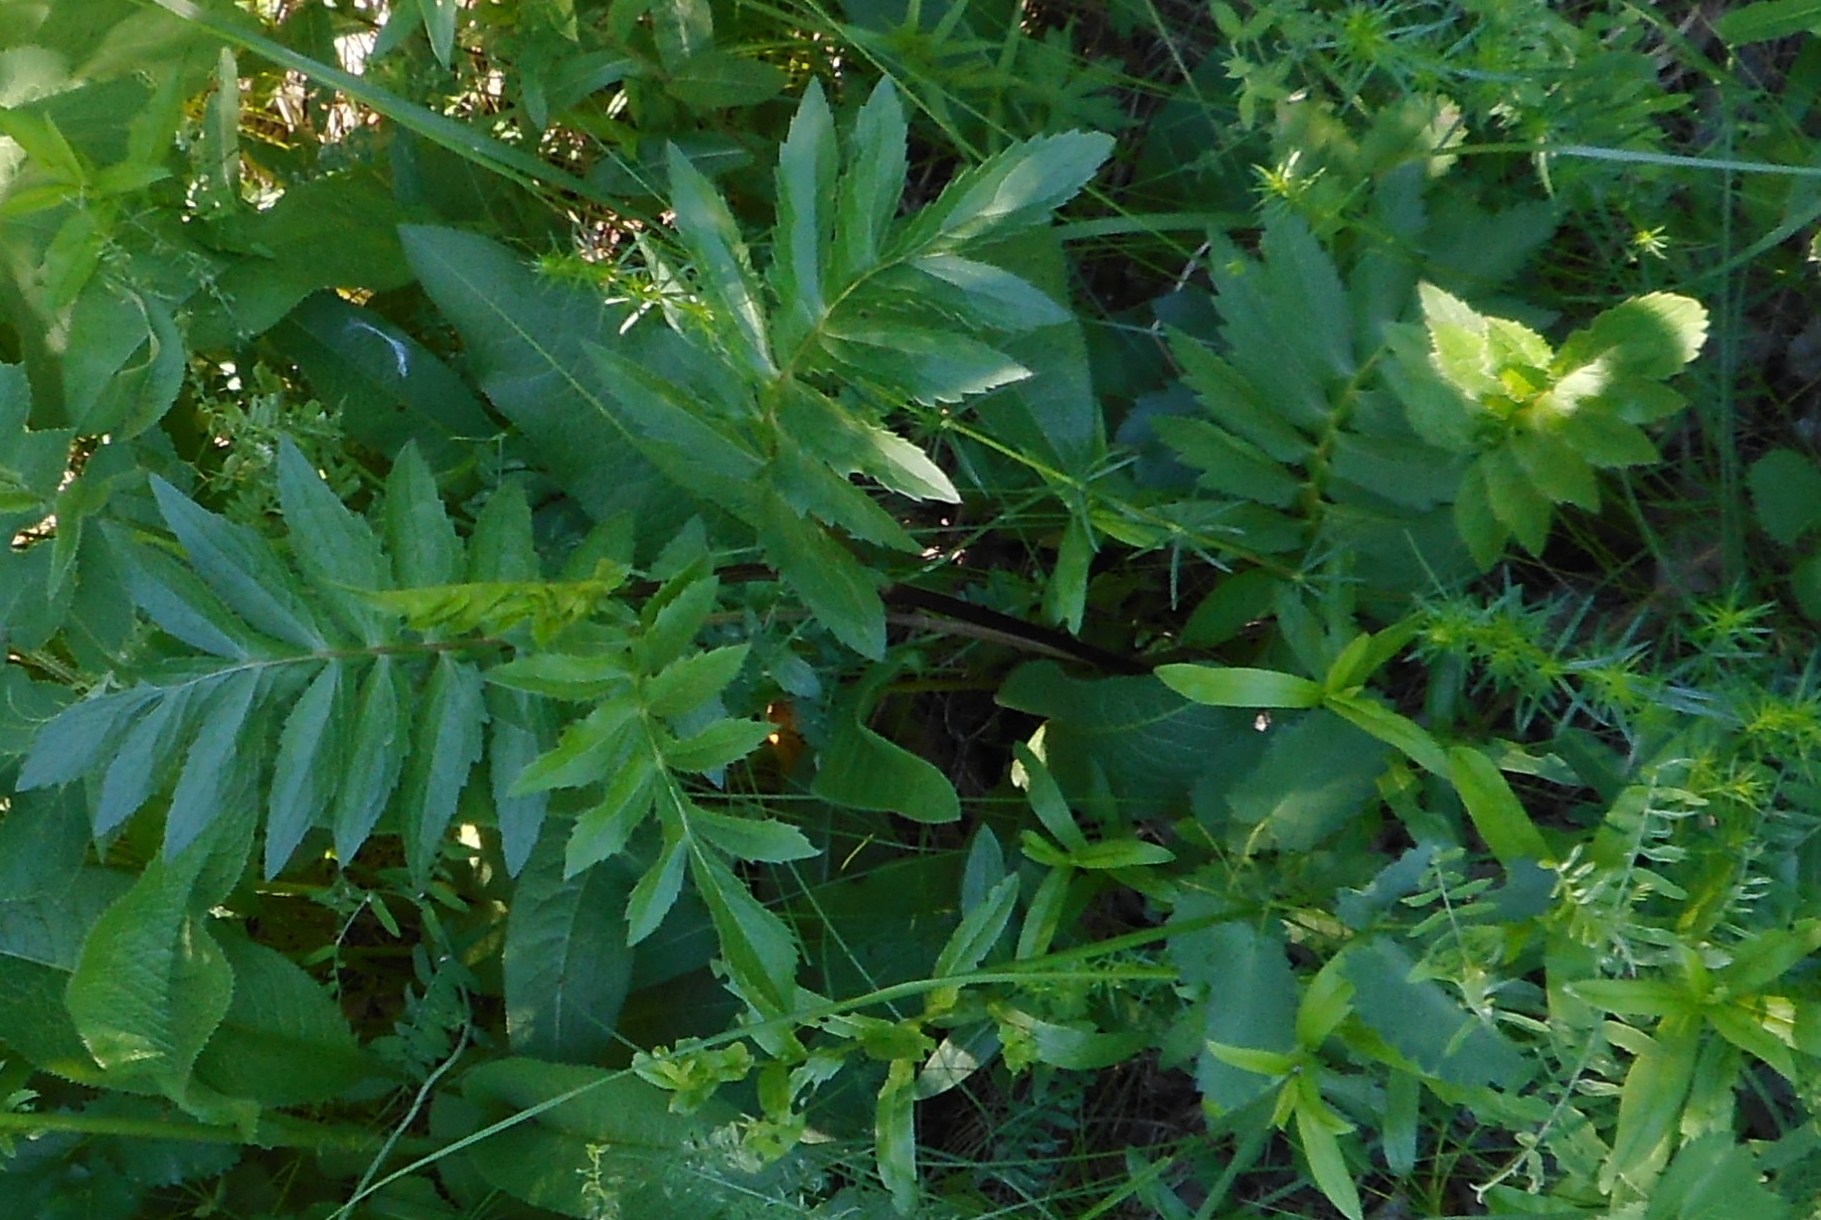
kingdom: Plantae
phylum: Tracheophyta
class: Magnoliopsida
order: Asterales
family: Asteraceae
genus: Serratula
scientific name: Serratula coronata
